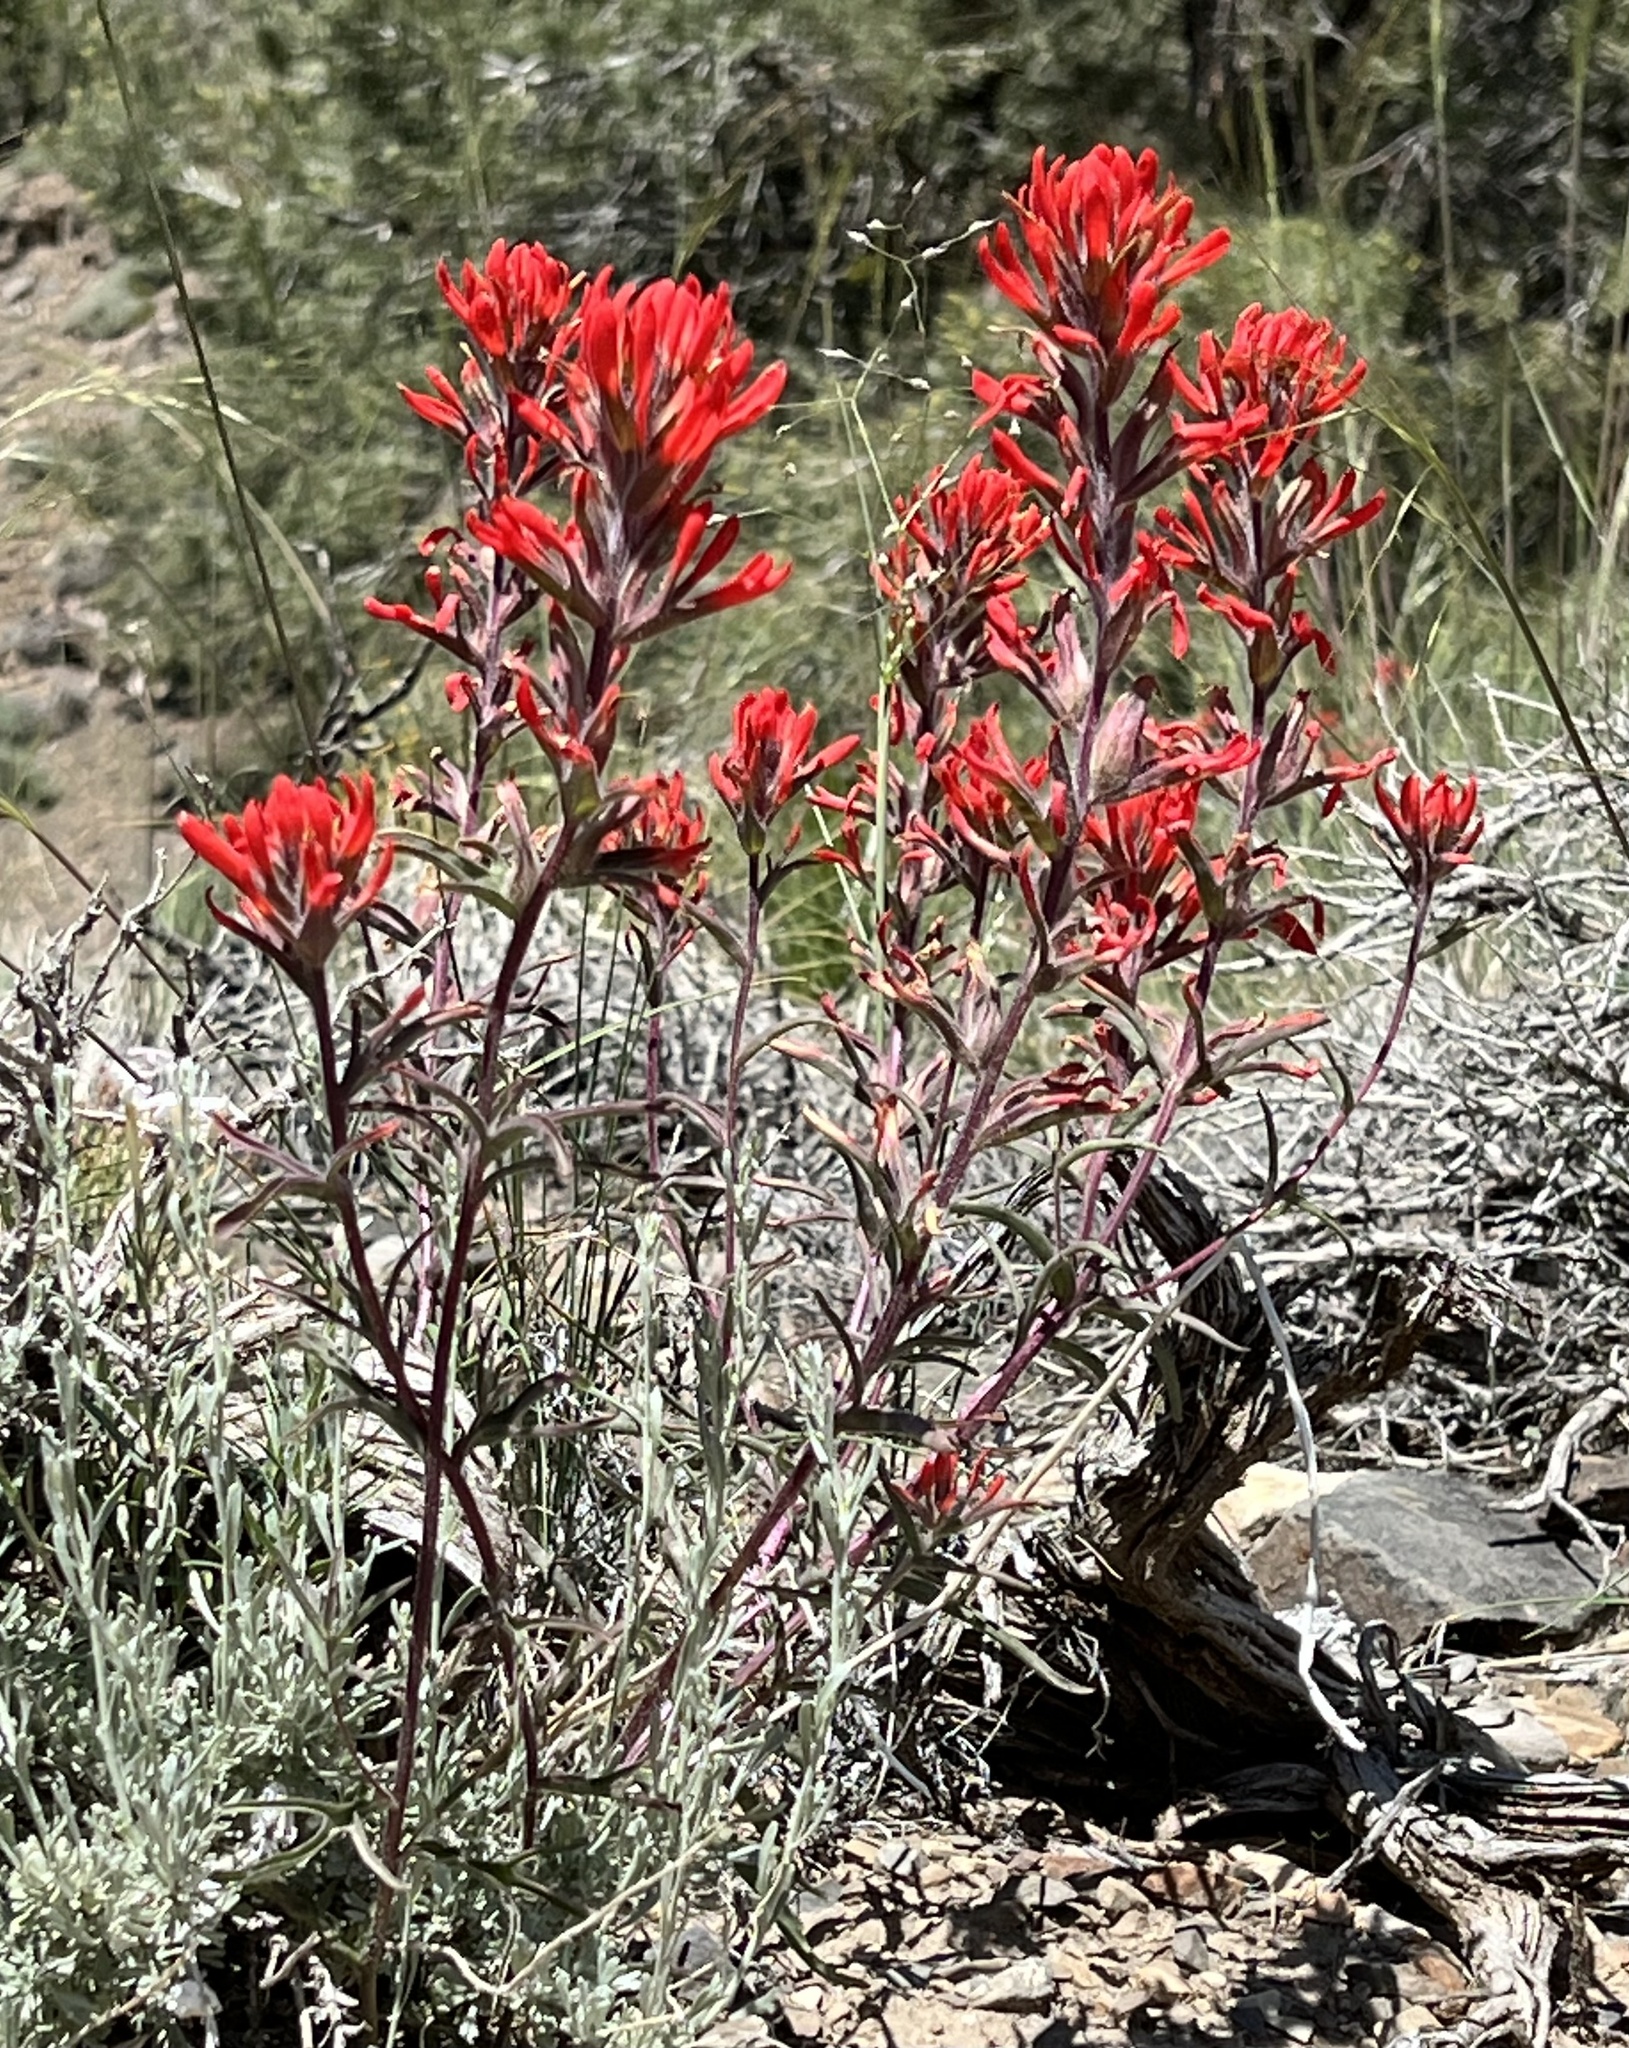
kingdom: Plantae
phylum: Tracheophyta
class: Magnoliopsida
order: Lamiales
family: Orobanchaceae
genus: Castilleja
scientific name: Castilleja chromosa
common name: Desert paintbrush
